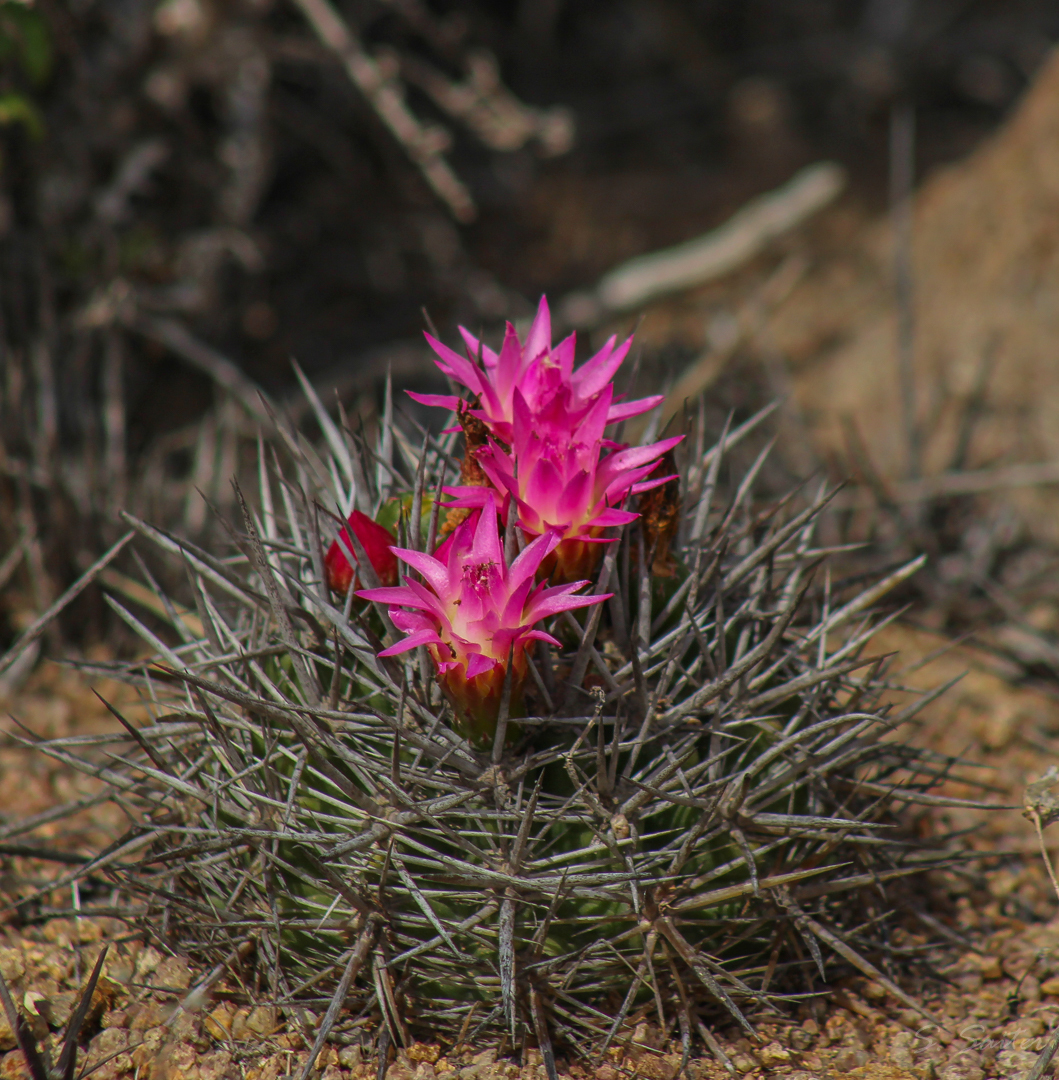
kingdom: Plantae
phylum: Tracheophyta
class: Magnoliopsida
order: Caryophyllales
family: Cactaceae
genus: Eriosyce
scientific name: Eriosyce wagenknechtii
